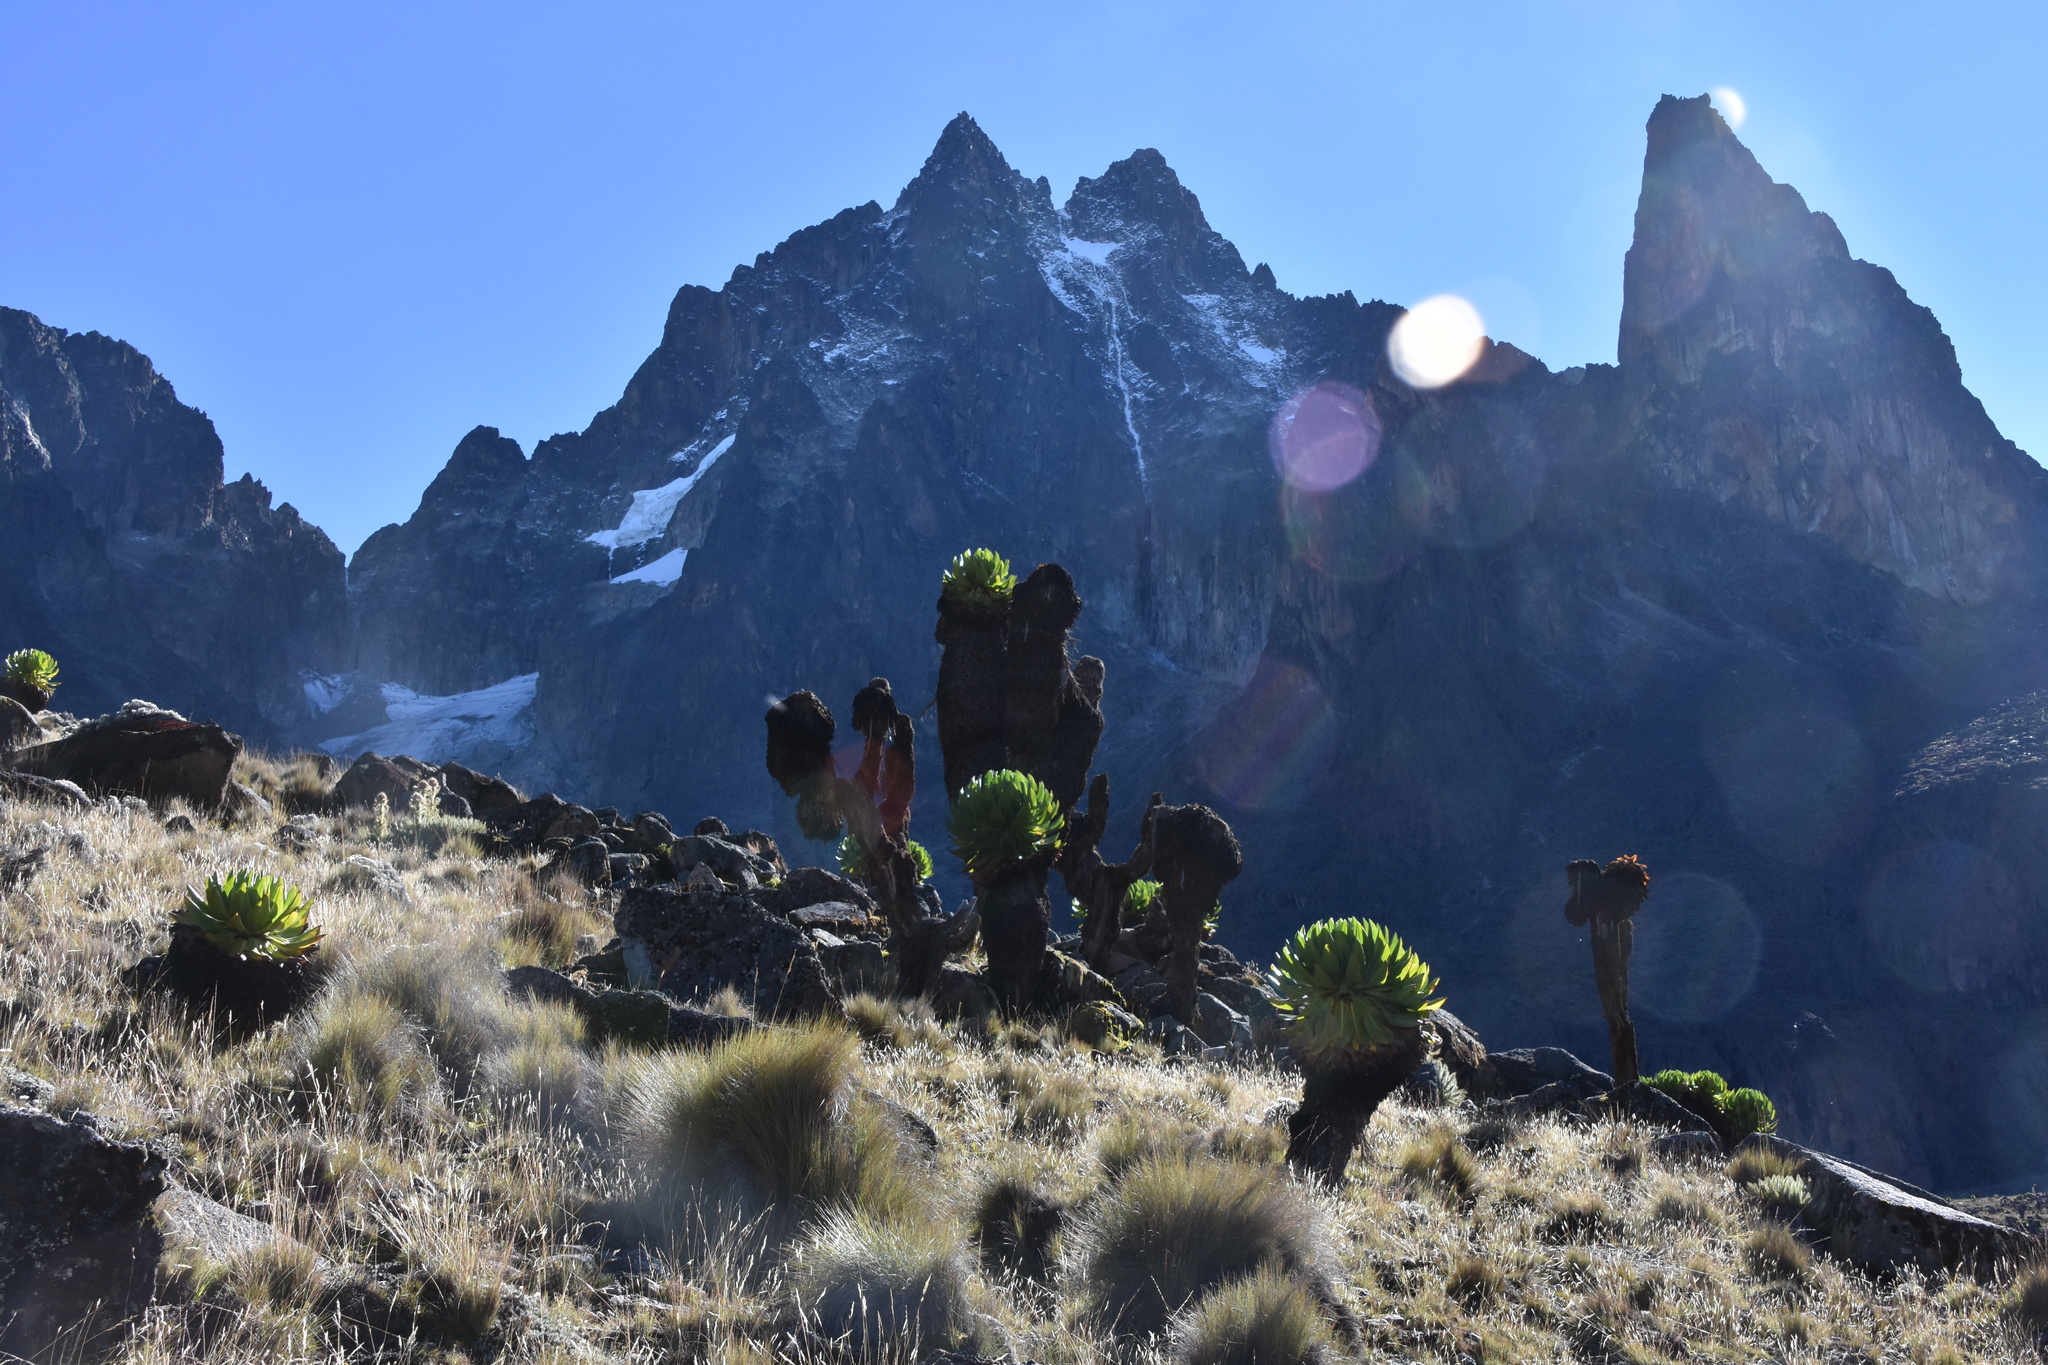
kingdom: Plantae
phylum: Tracheophyta
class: Magnoliopsida
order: Asterales
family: Asteraceae
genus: Dendrosenecio
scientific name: Dendrosenecio keniodendron
